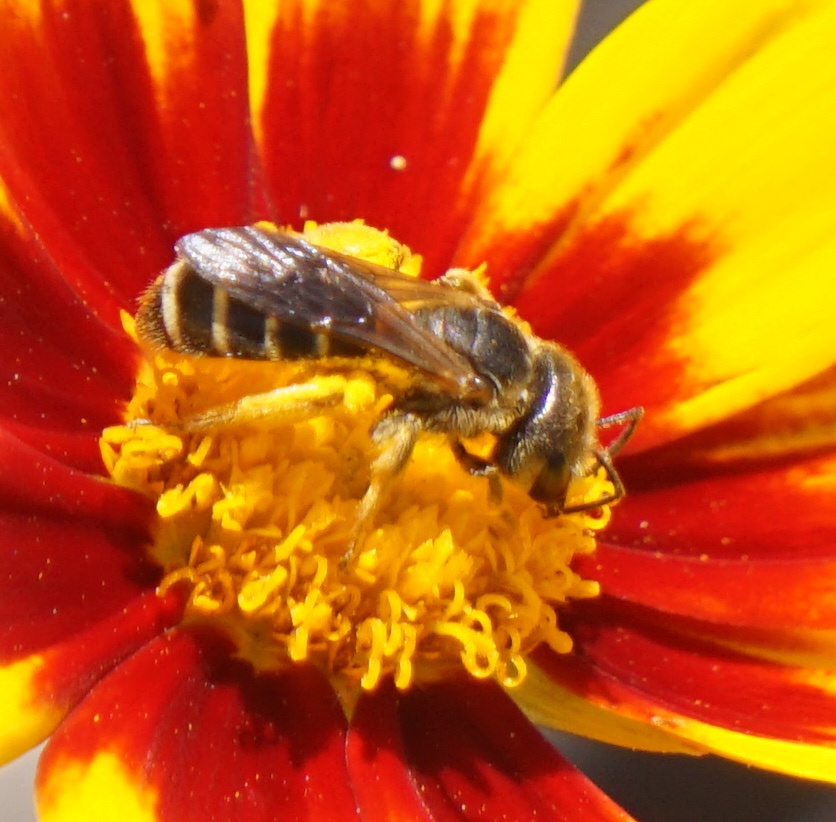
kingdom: Animalia
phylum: Arthropoda
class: Insecta
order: Hymenoptera
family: Halictidae
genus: Halictus
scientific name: Halictus poeyi
